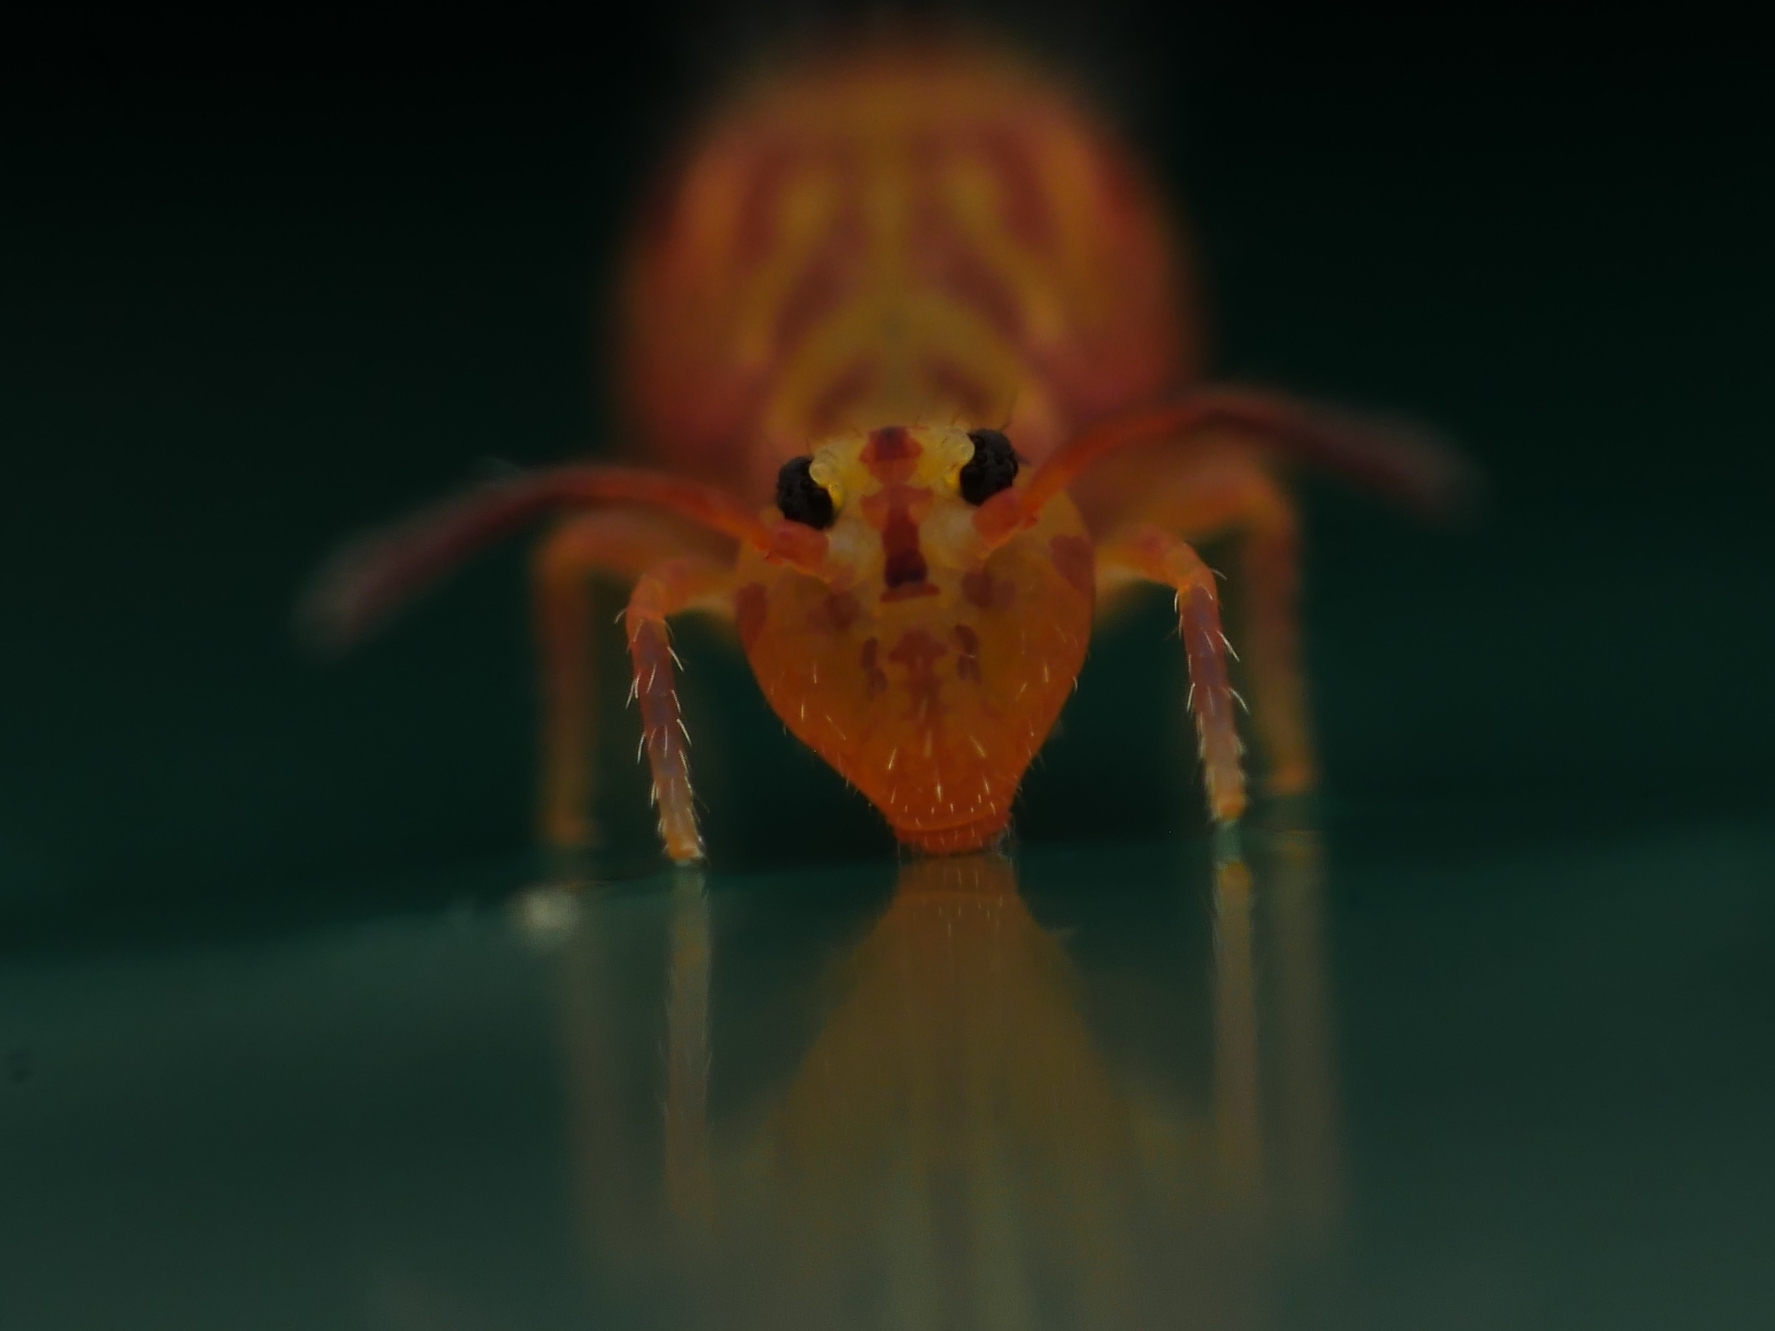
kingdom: Animalia
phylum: Arthropoda
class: Collembola
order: Symphypleona
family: Dicyrtomidae
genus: Dicyrtomina
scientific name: Dicyrtomina ornata
